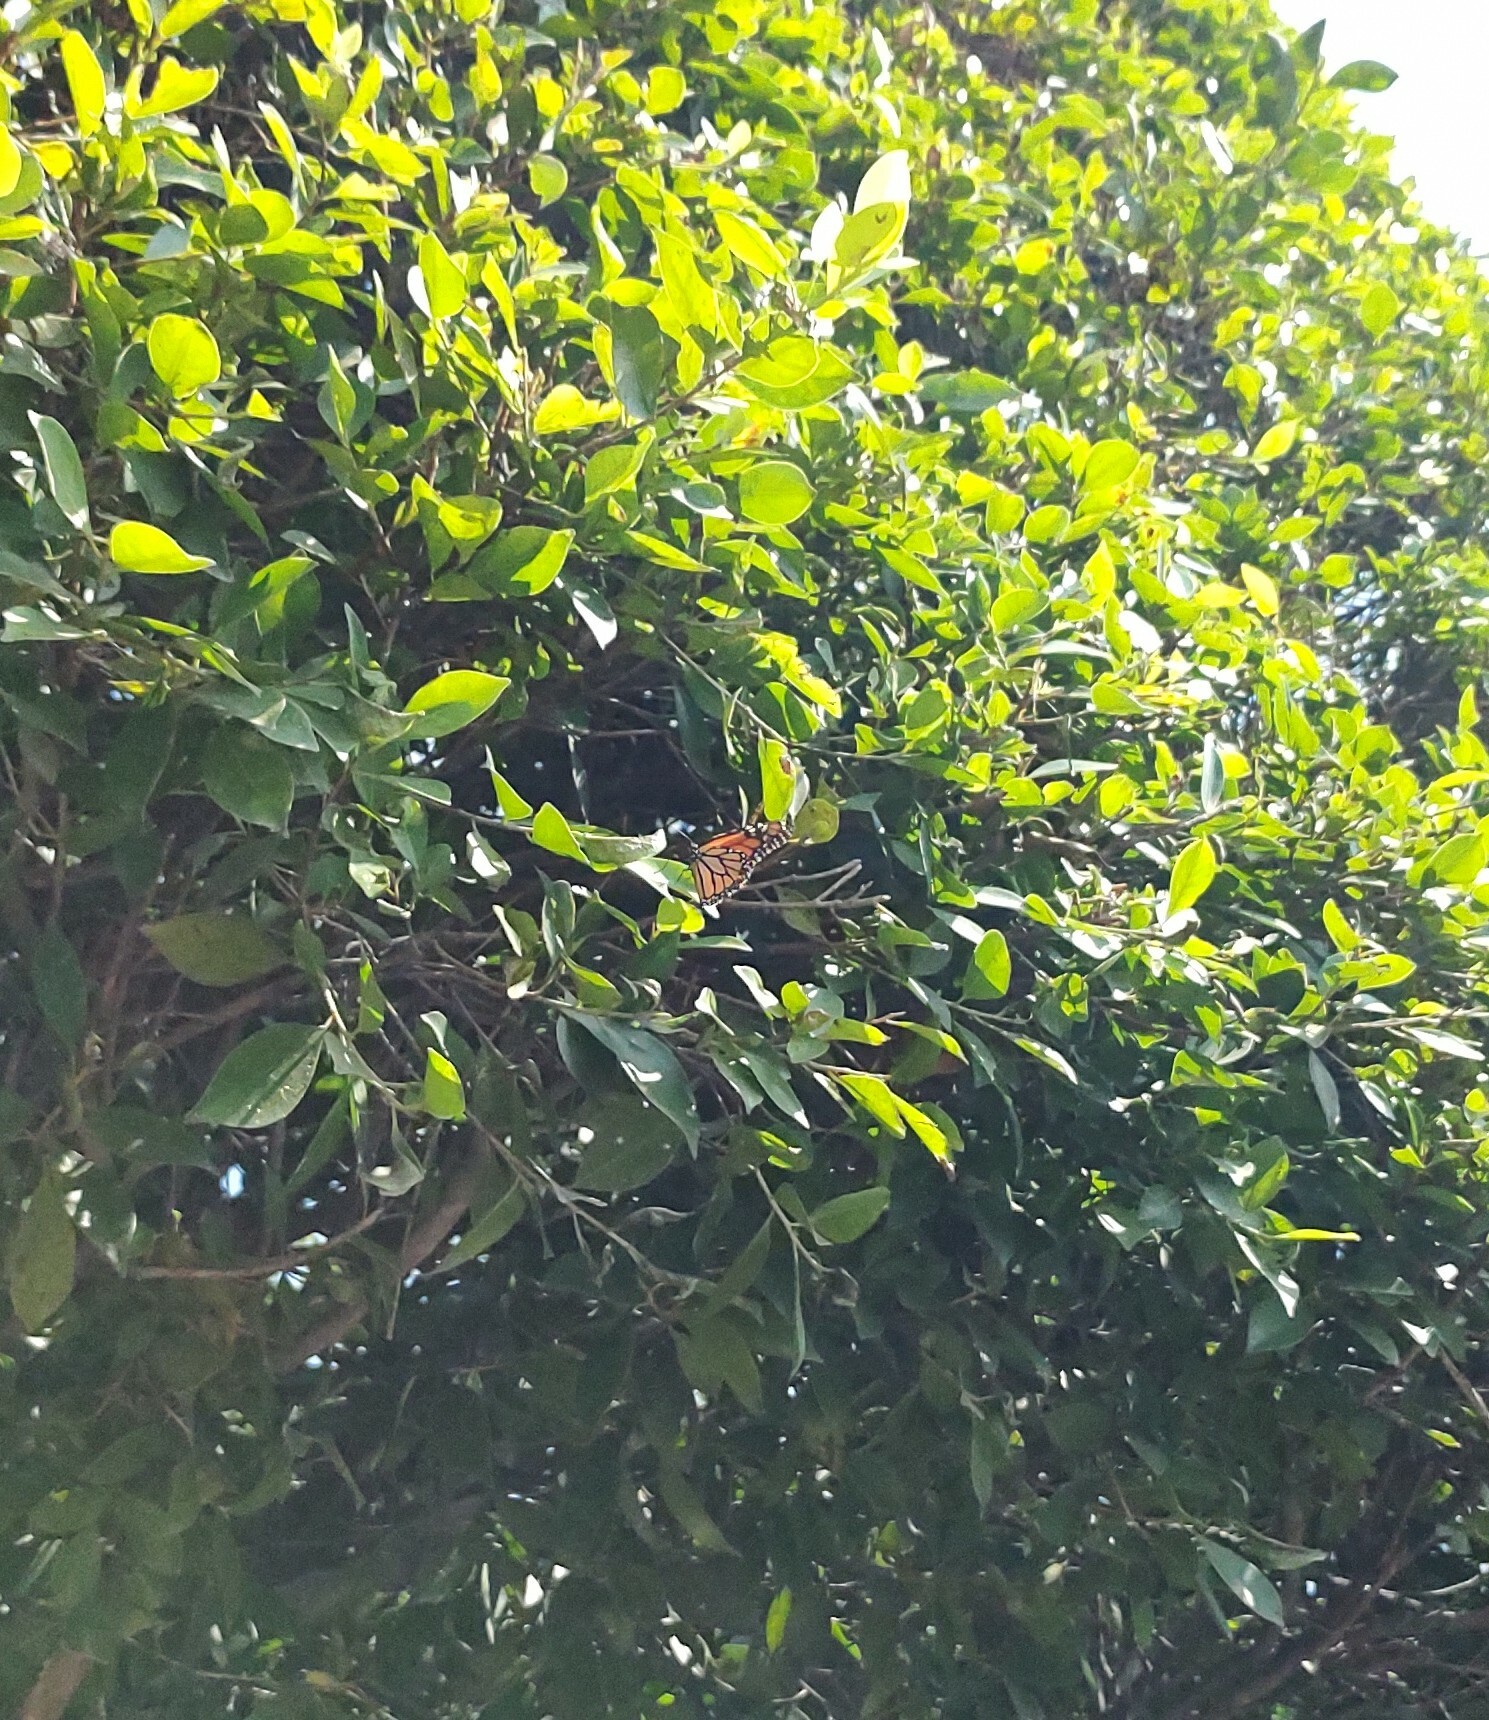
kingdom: Animalia
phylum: Arthropoda
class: Insecta
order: Lepidoptera
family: Nymphalidae
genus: Danaus
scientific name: Danaus plexippus
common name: Monarch
